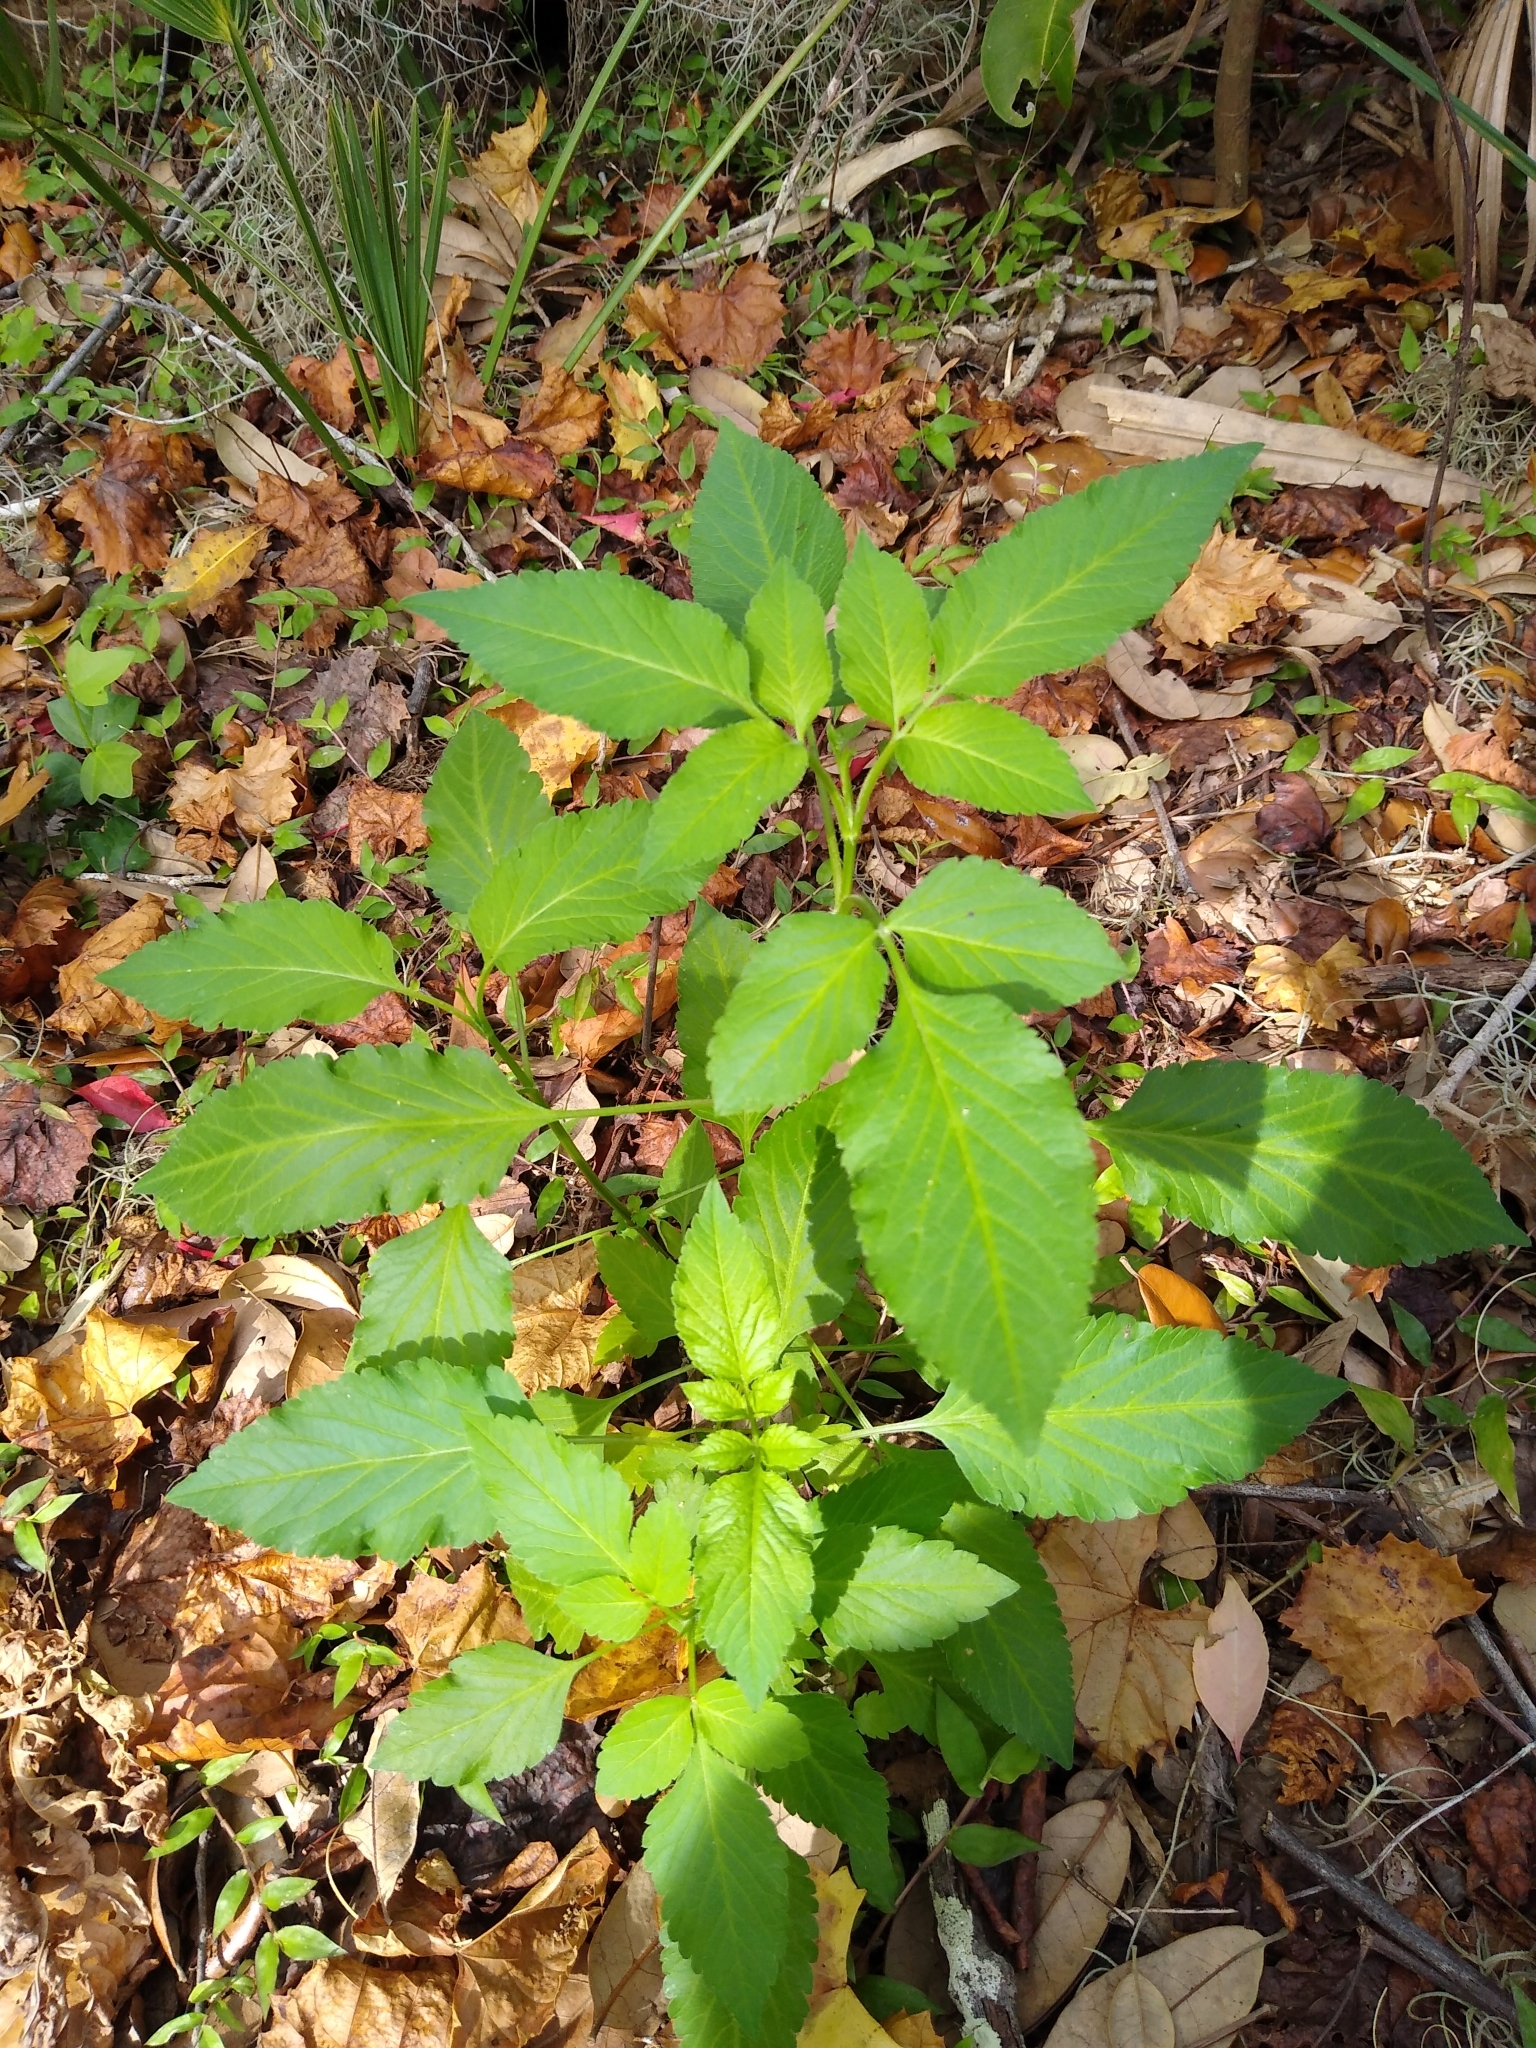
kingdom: Plantae
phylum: Tracheophyta
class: Magnoliopsida
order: Asterales
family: Asteraceae
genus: Bidens
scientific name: Bidens alba
